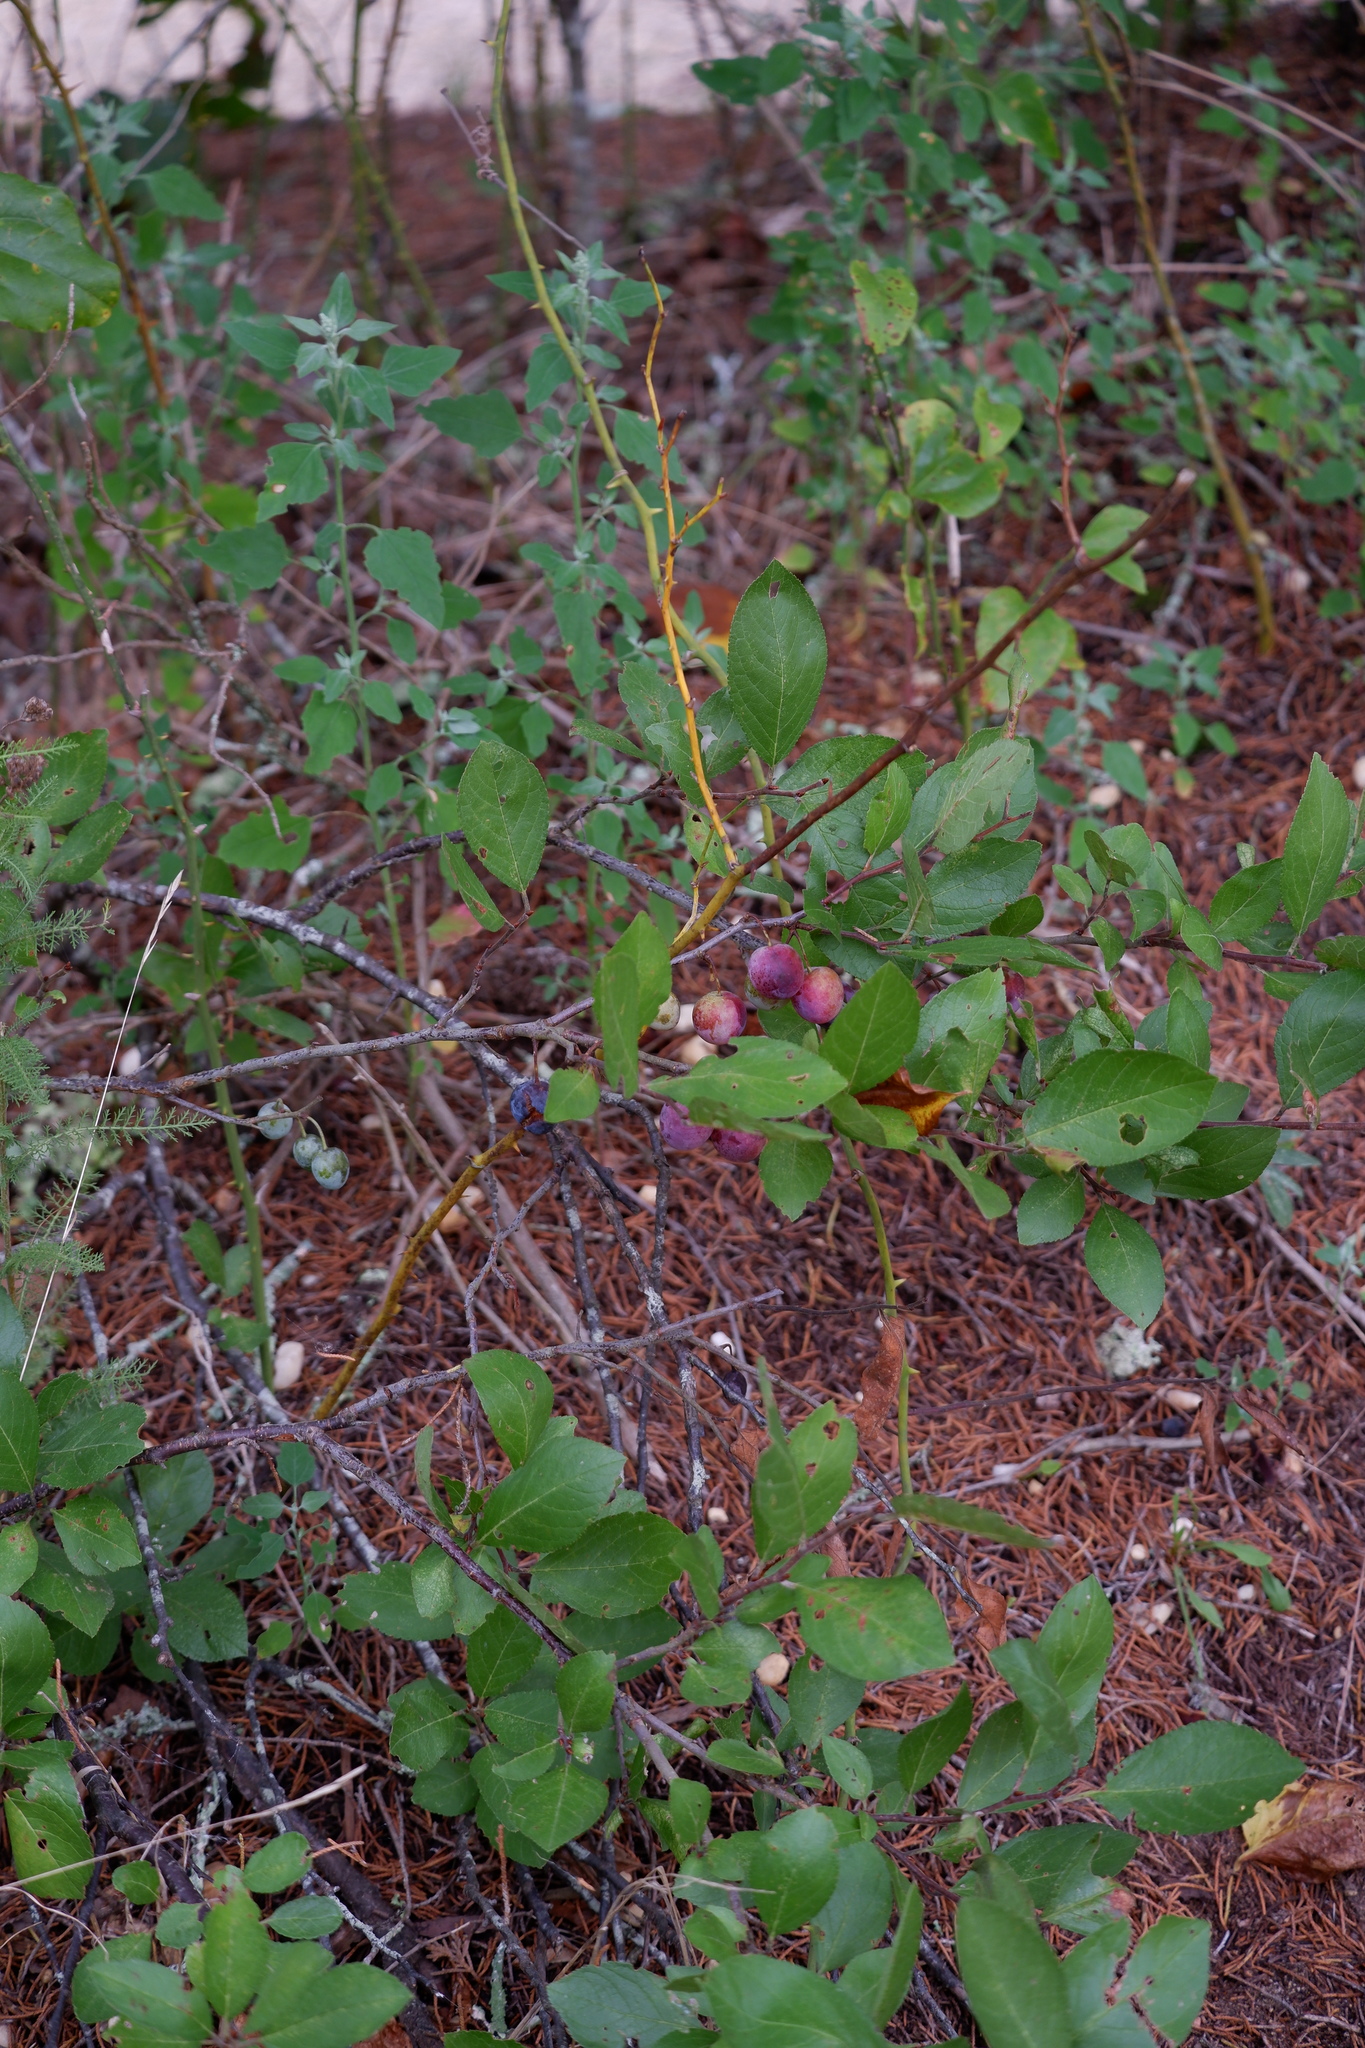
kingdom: Plantae
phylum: Tracheophyta
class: Magnoliopsida
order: Rosales
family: Rosaceae
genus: Prunus
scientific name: Prunus maritima
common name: Beach plum
